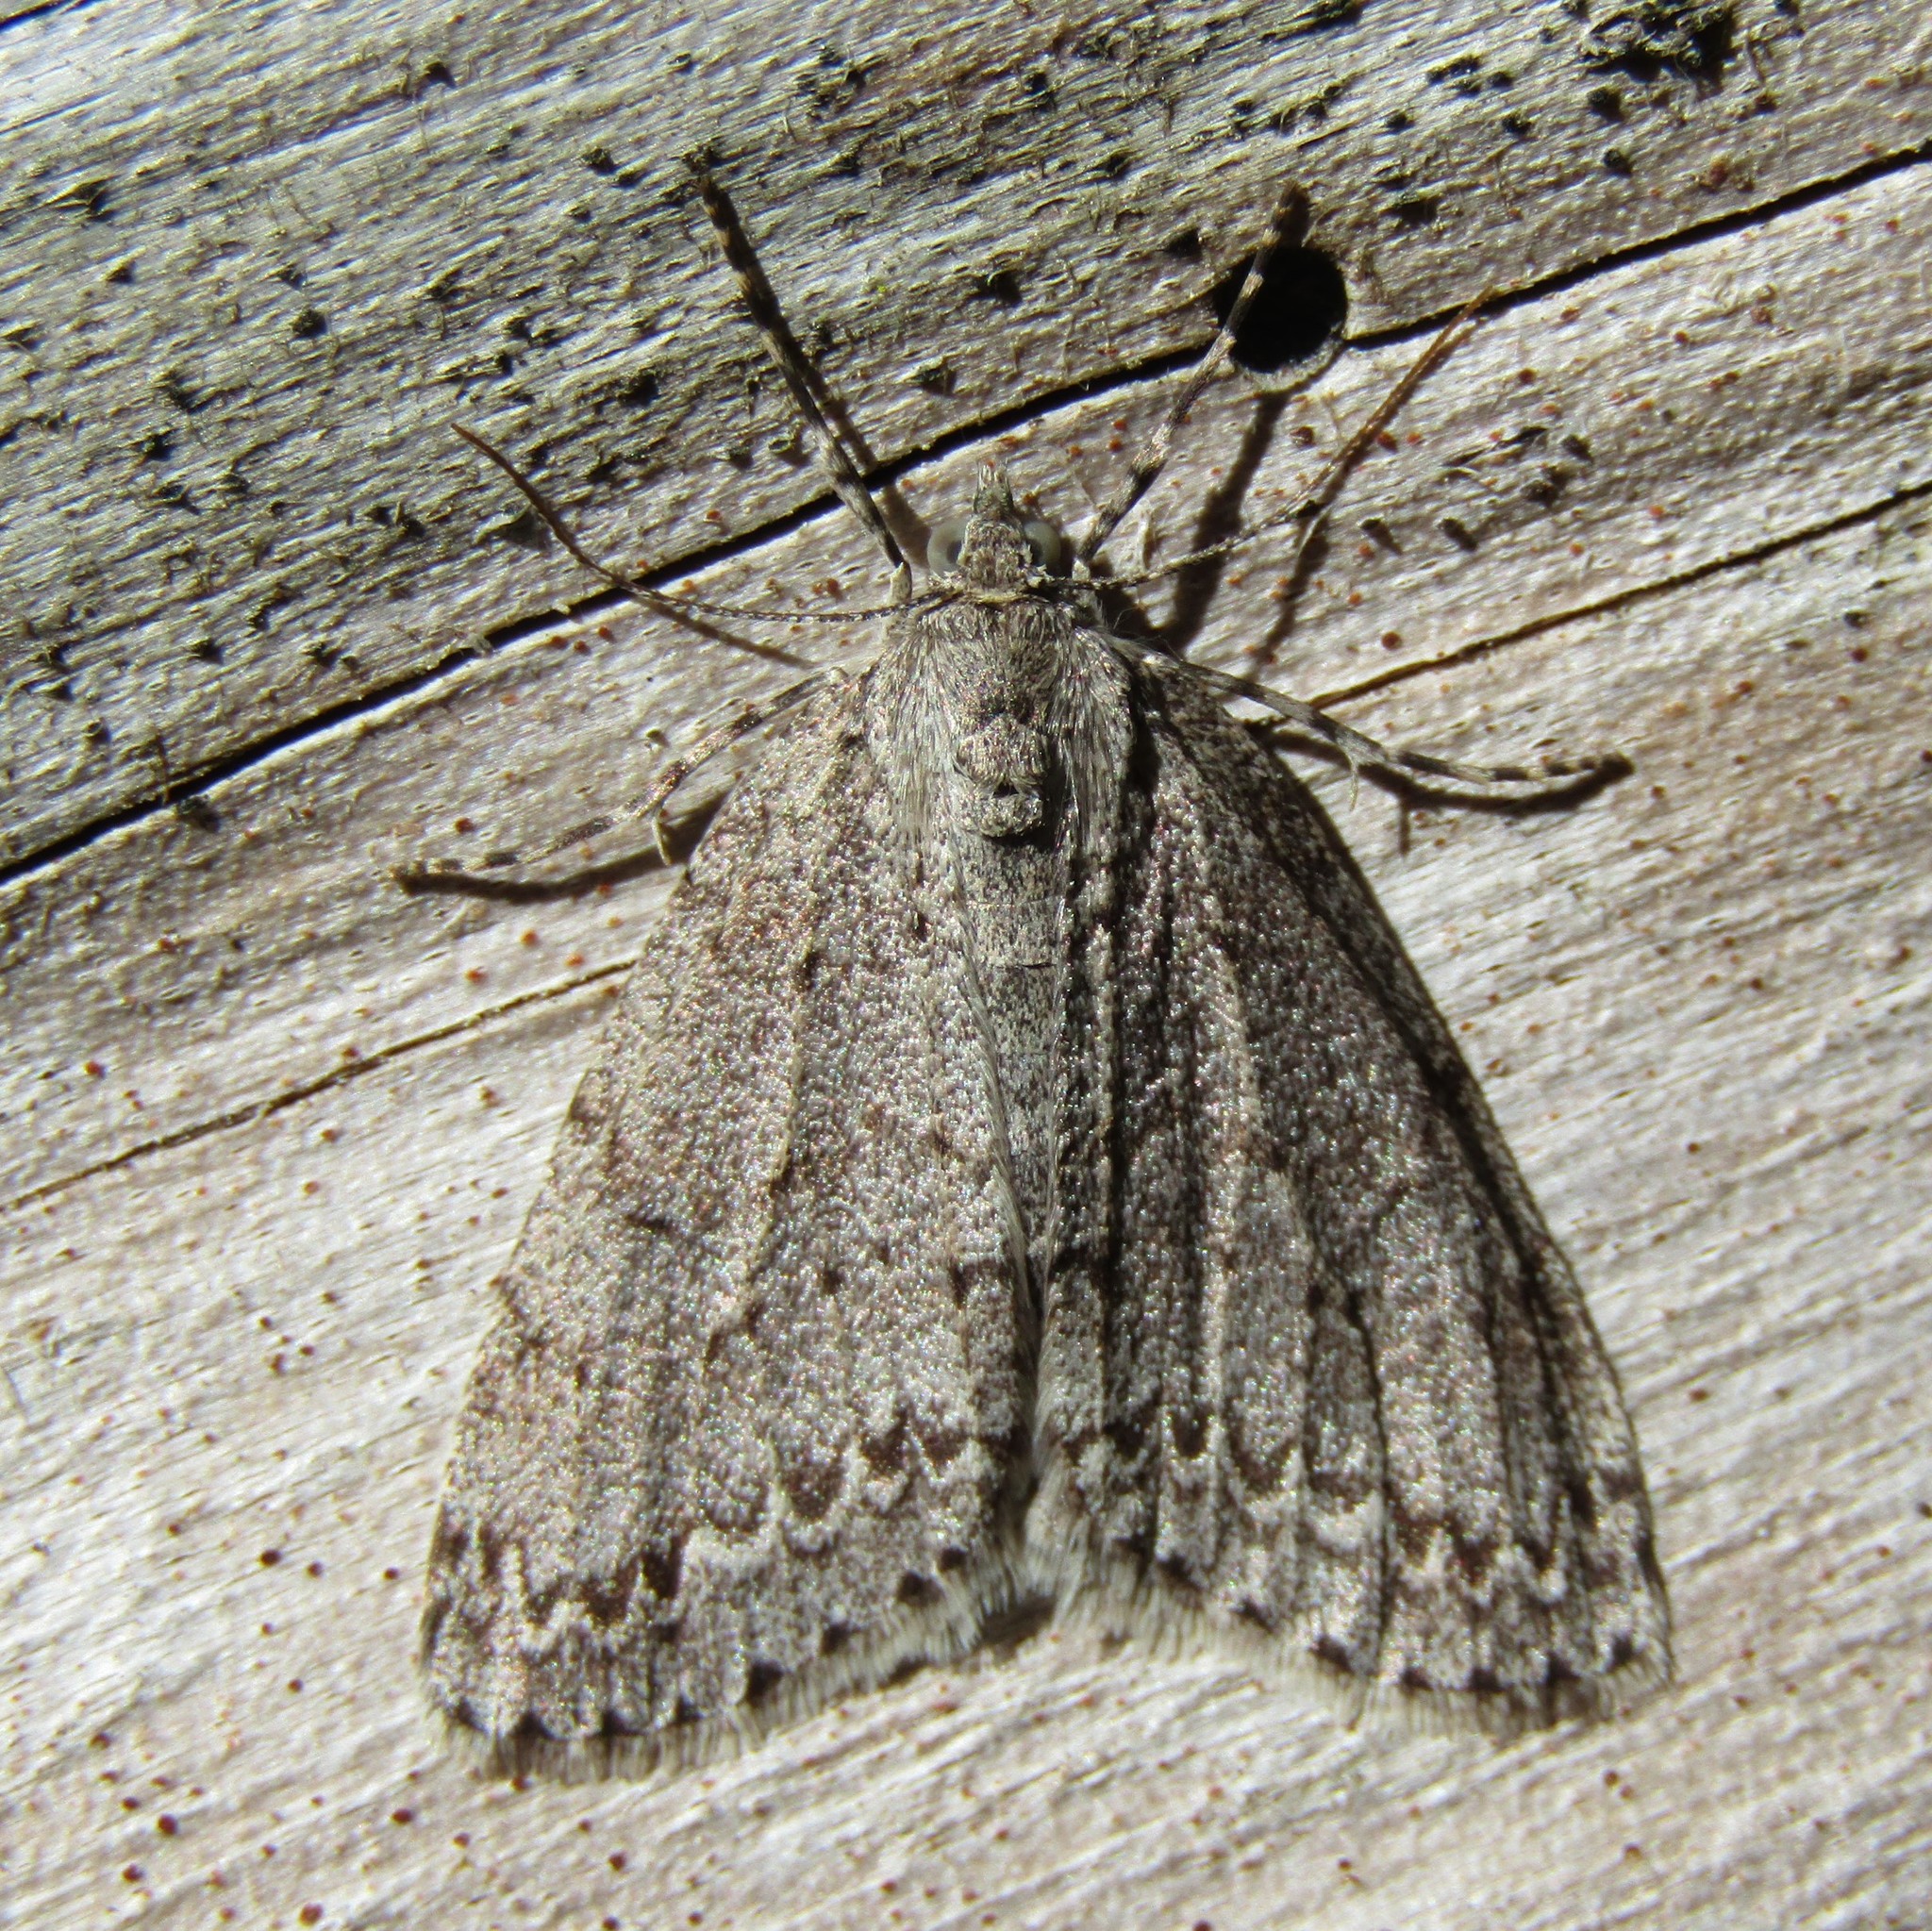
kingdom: Animalia
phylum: Arthropoda
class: Insecta
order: Lepidoptera
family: Geometridae
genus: Pseudocoremia
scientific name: Pseudocoremia fenerata
